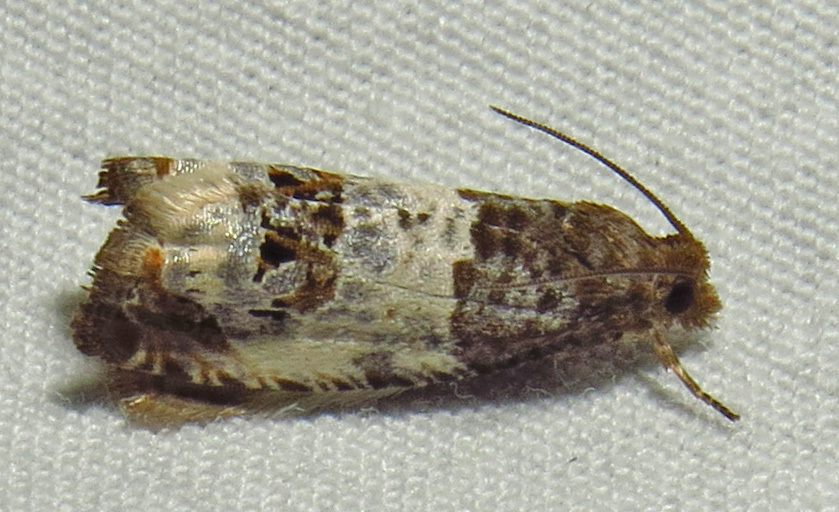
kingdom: Animalia
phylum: Arthropoda
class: Insecta
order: Lepidoptera
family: Tortricidae
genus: Notocelia
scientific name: Notocelia rosaecolana
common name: Common rose bell
